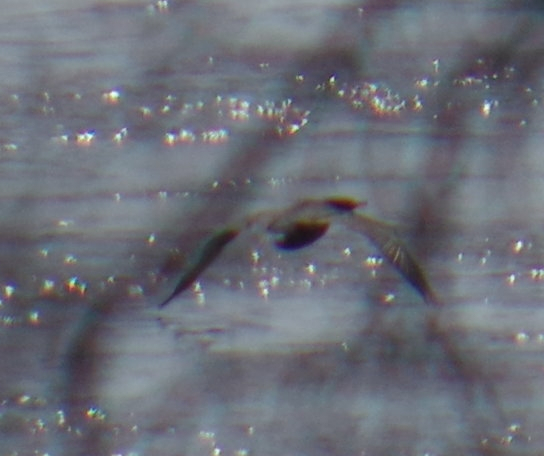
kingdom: Animalia
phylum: Chordata
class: Aves
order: Suliformes
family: Phalacrocoracidae
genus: Phalacrocorax
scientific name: Phalacrocorax auritus
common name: Double-crested cormorant
